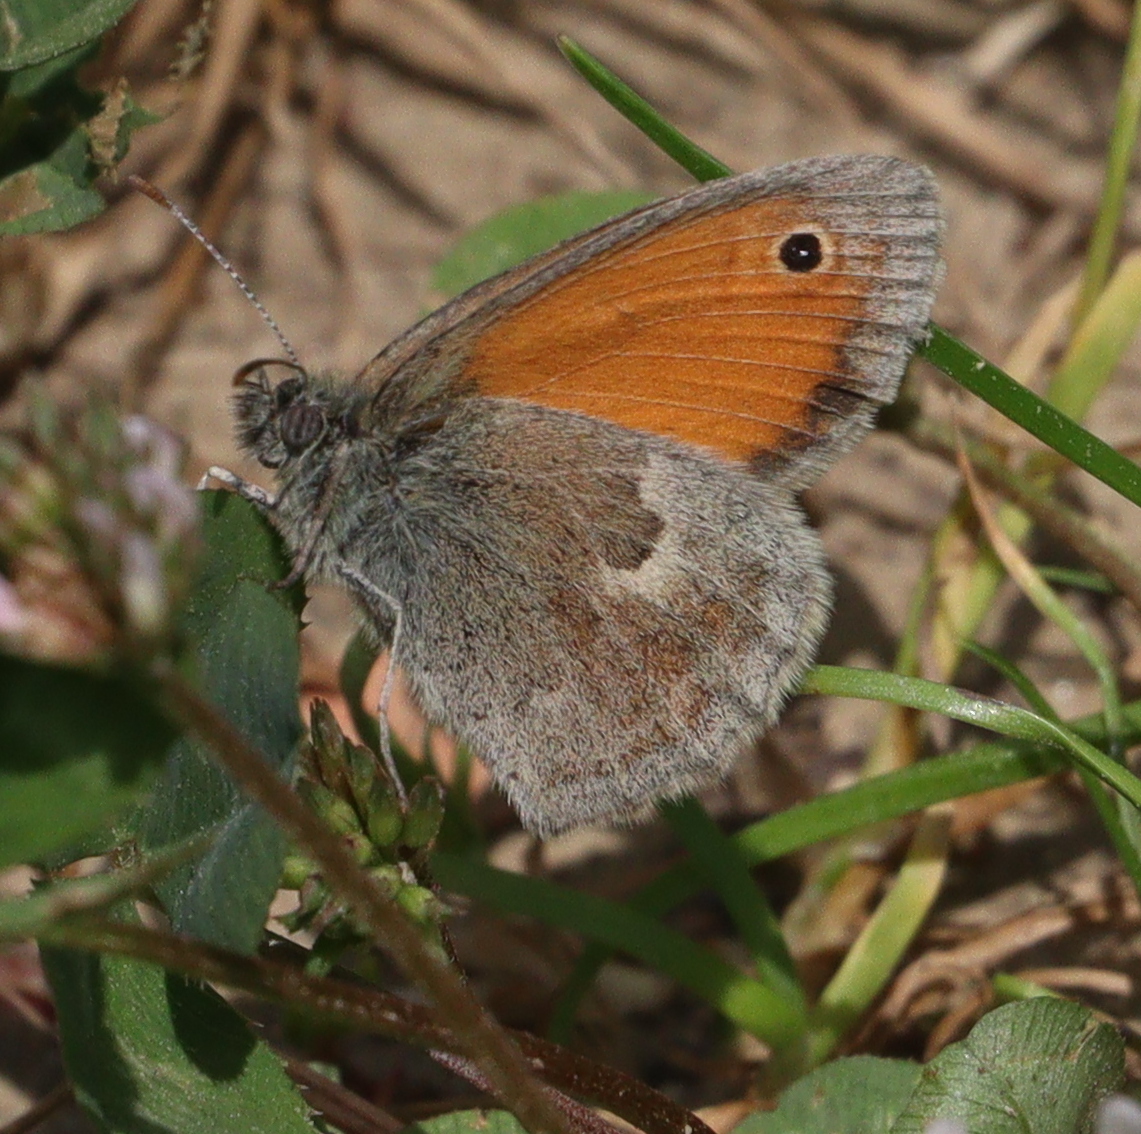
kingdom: Animalia
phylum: Arthropoda
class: Insecta
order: Lepidoptera
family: Nymphalidae
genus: Coenonympha
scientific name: Coenonympha pamphilus
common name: Small heath
